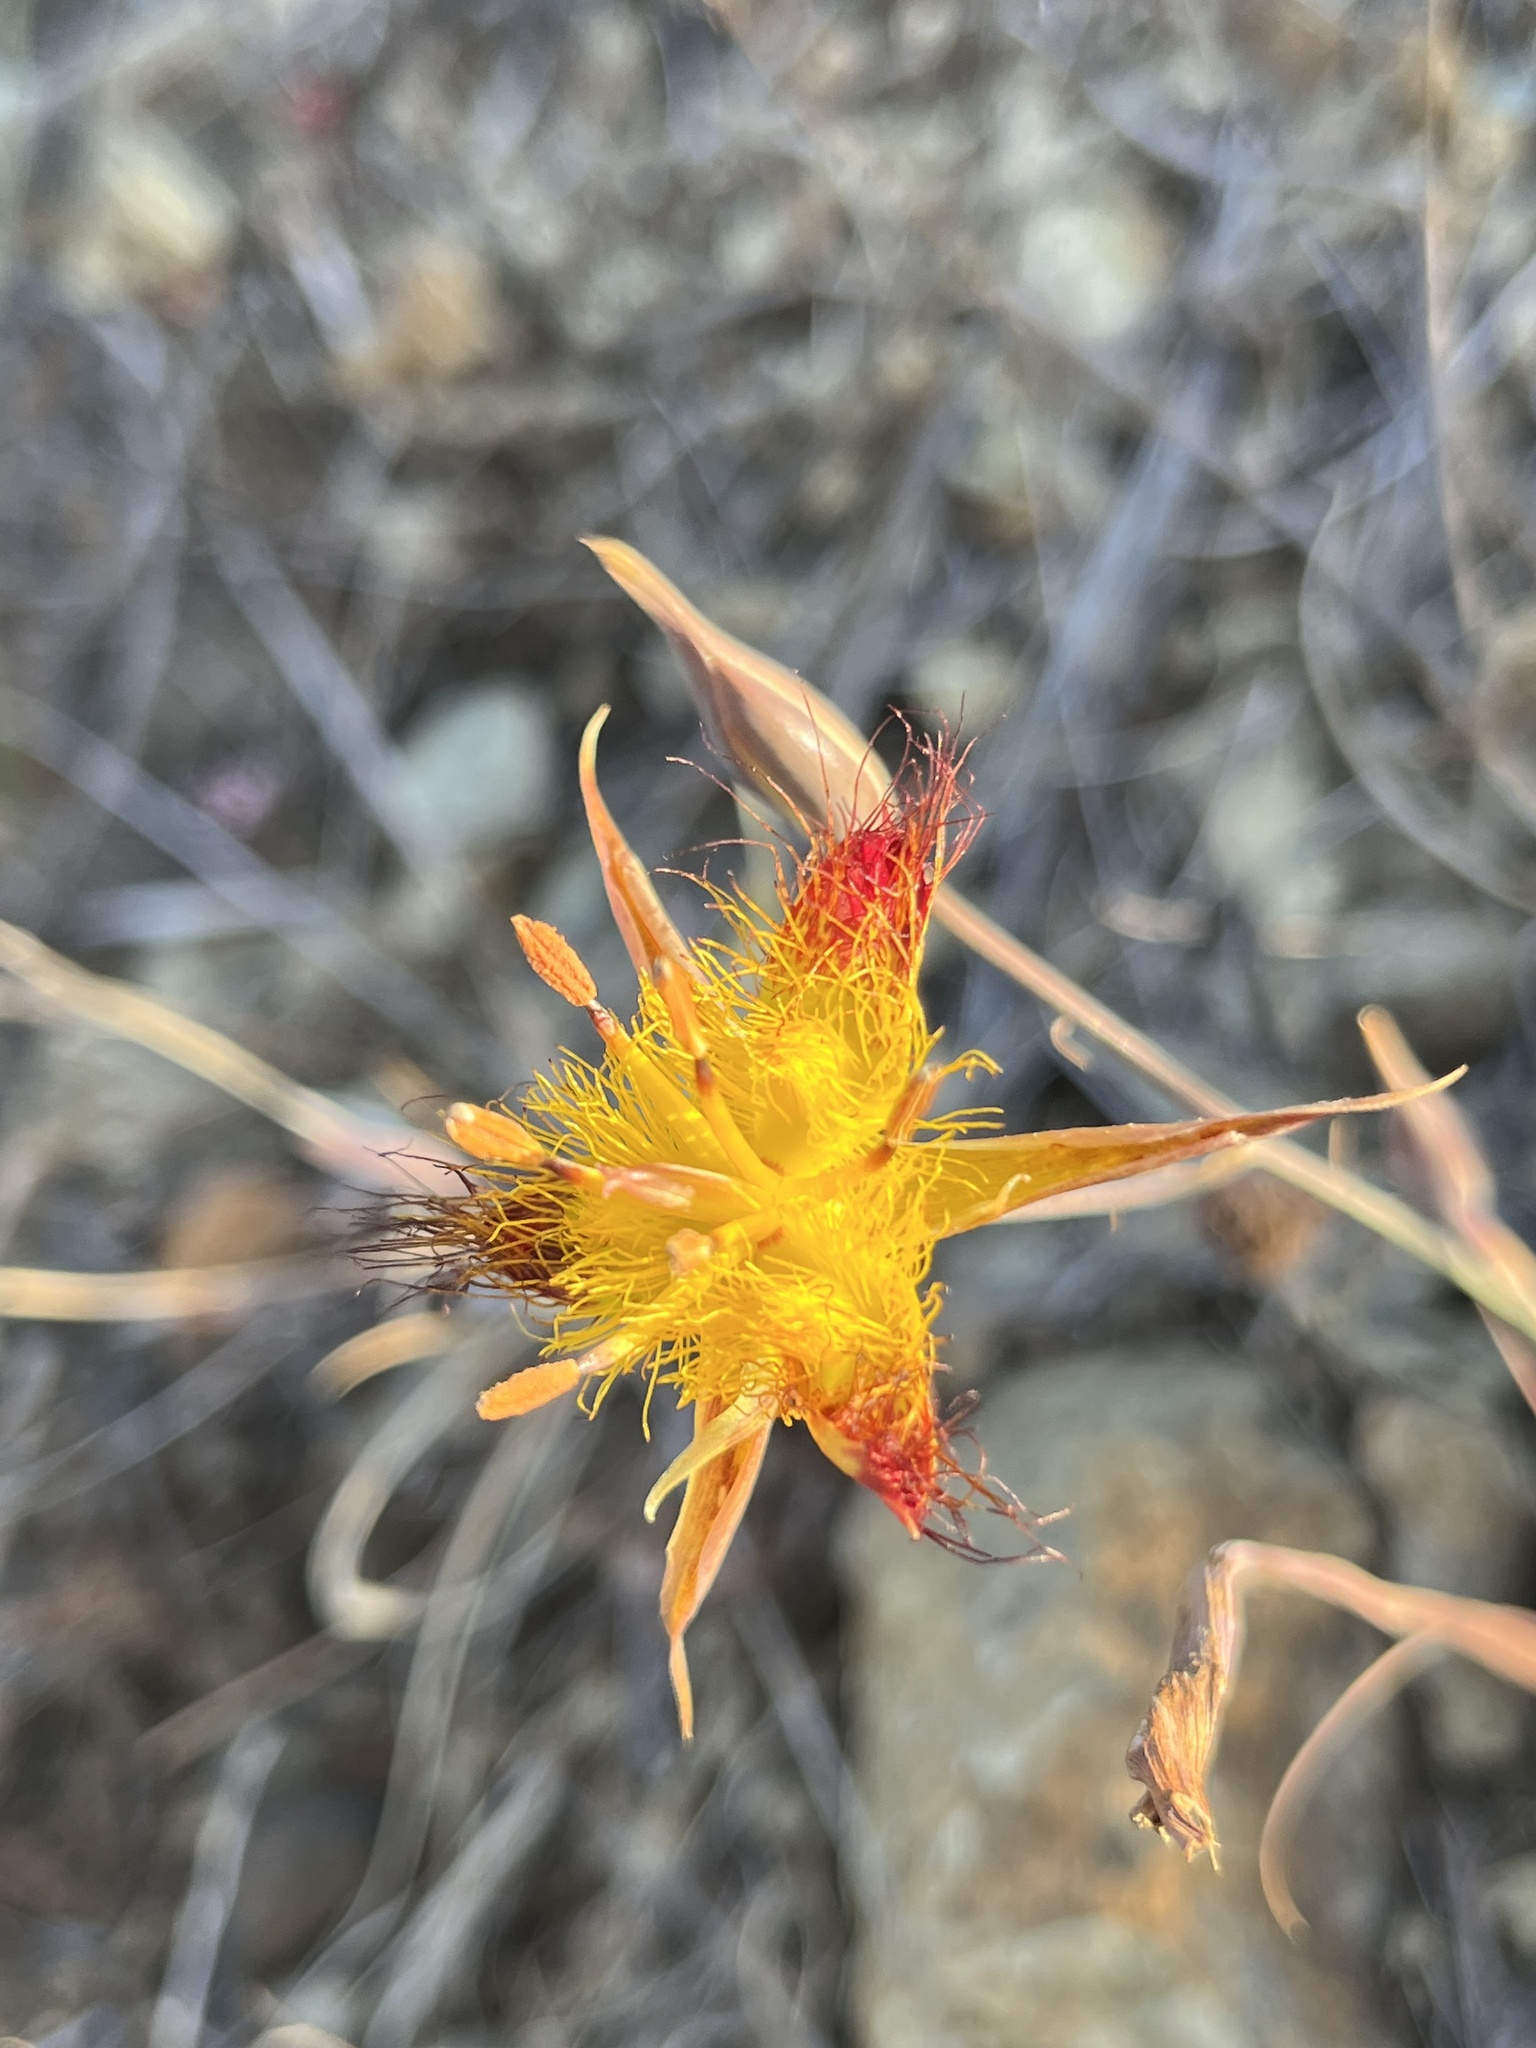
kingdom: Plantae
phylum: Tracheophyta
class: Liliopsida
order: Liliales
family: Liliaceae
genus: Calochortus
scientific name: Calochortus obispoensis
